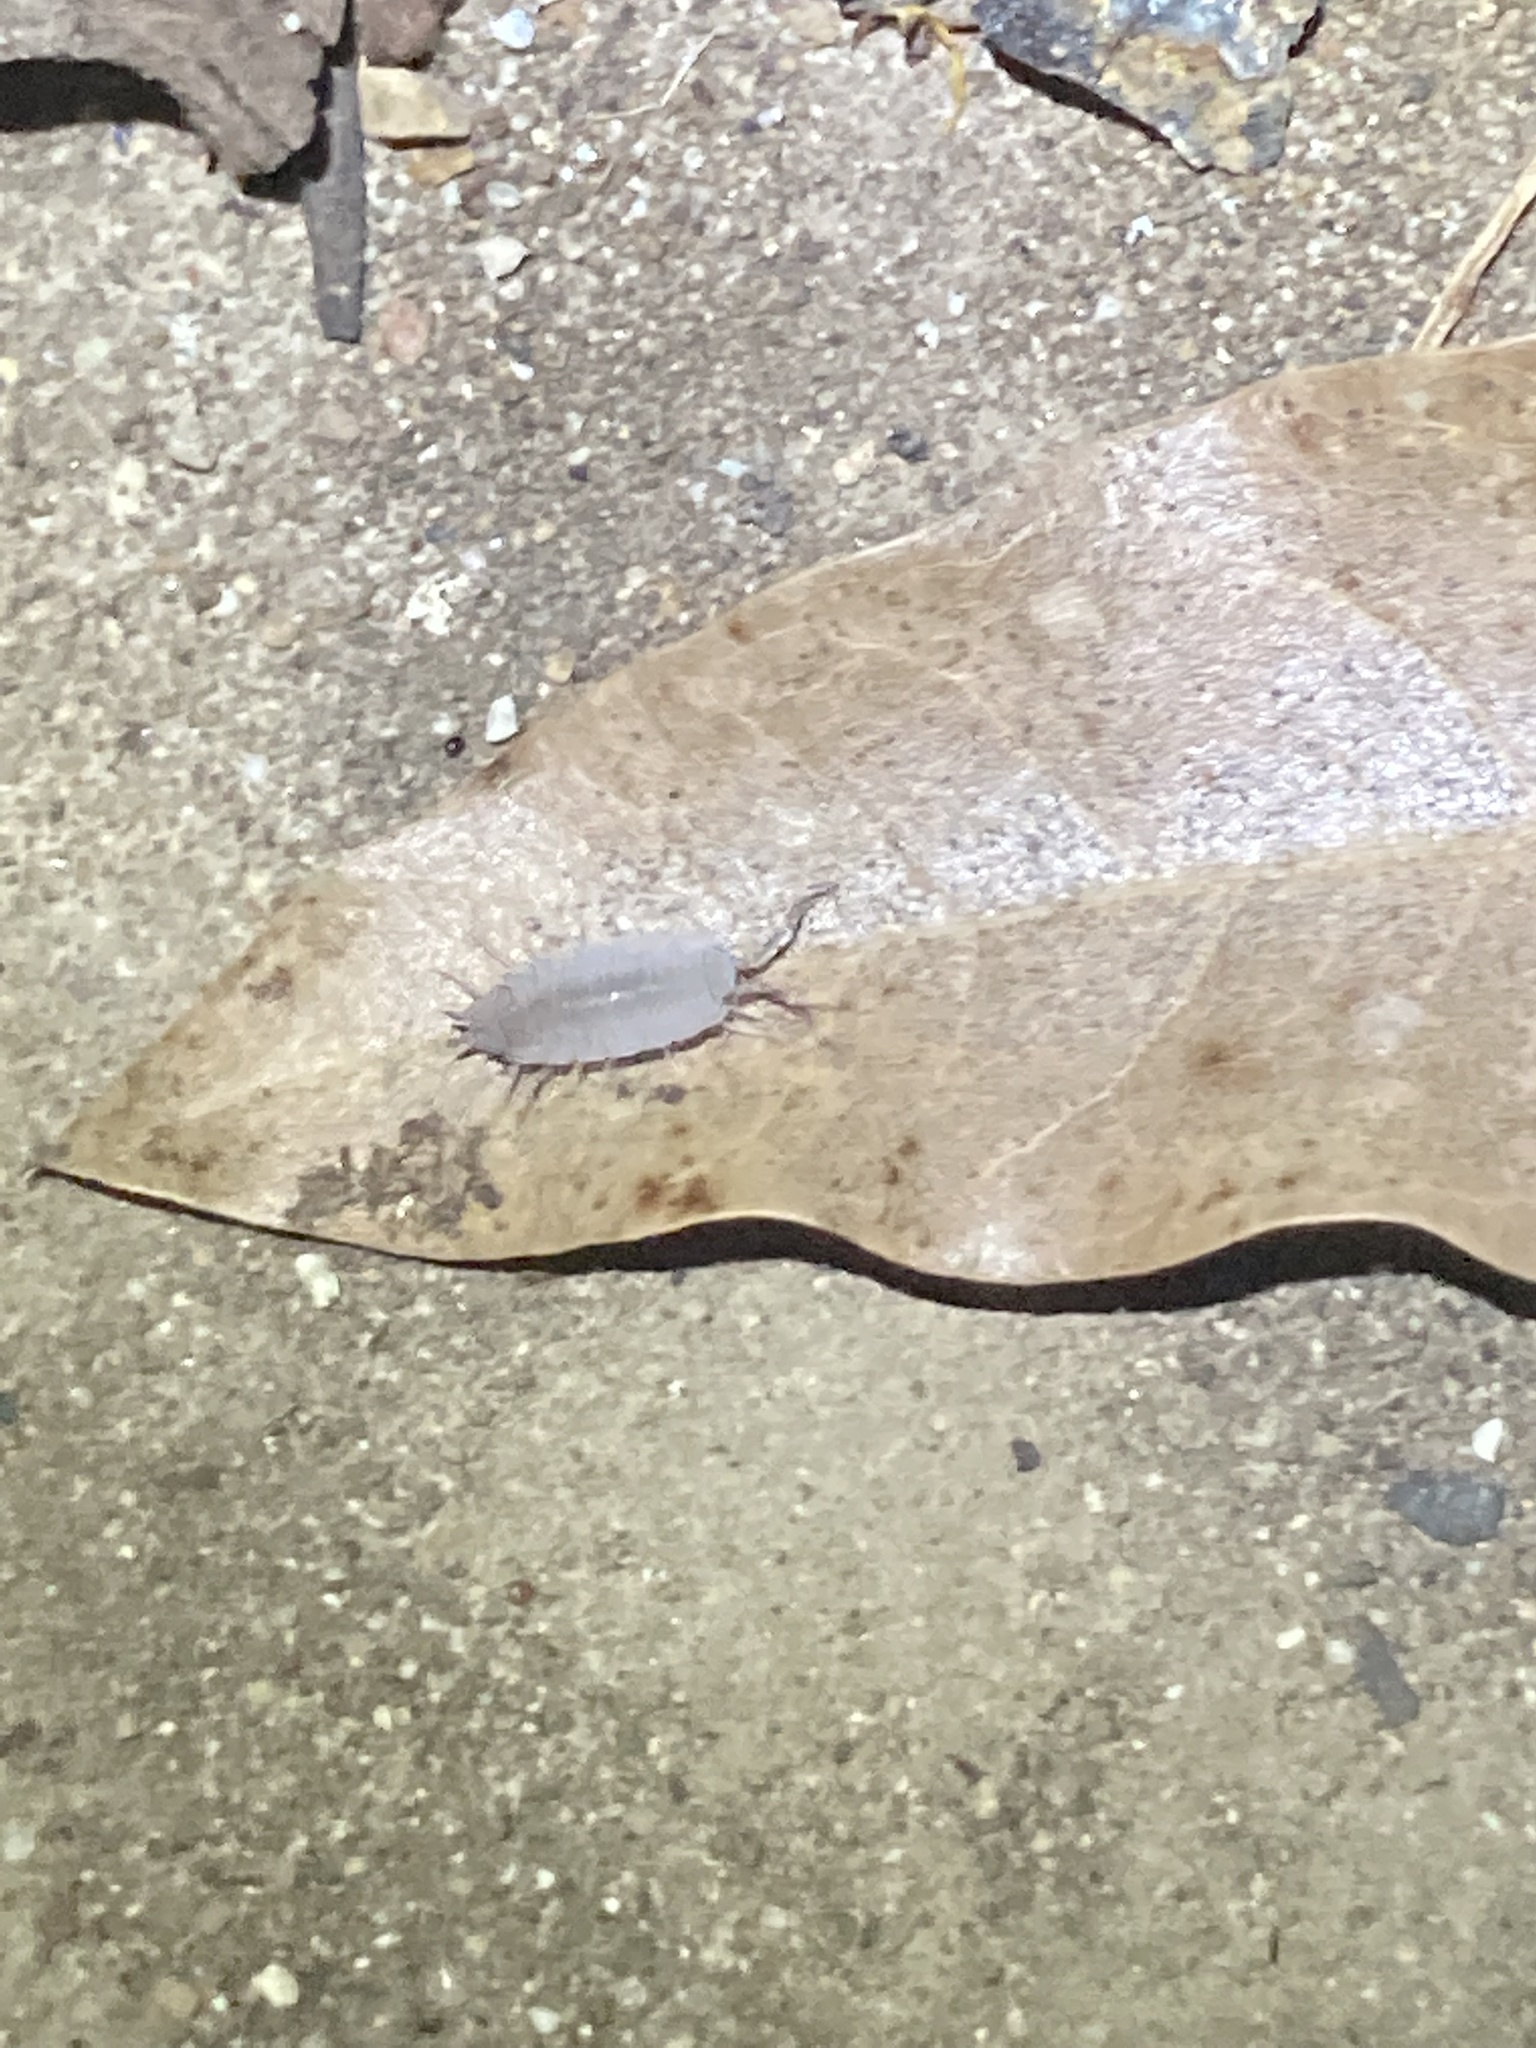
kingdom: Animalia
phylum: Arthropoda
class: Malacostraca
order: Isopoda
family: Porcellionidae
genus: Porcellionides
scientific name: Porcellionides pruinosus
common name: Plum woodlouse
